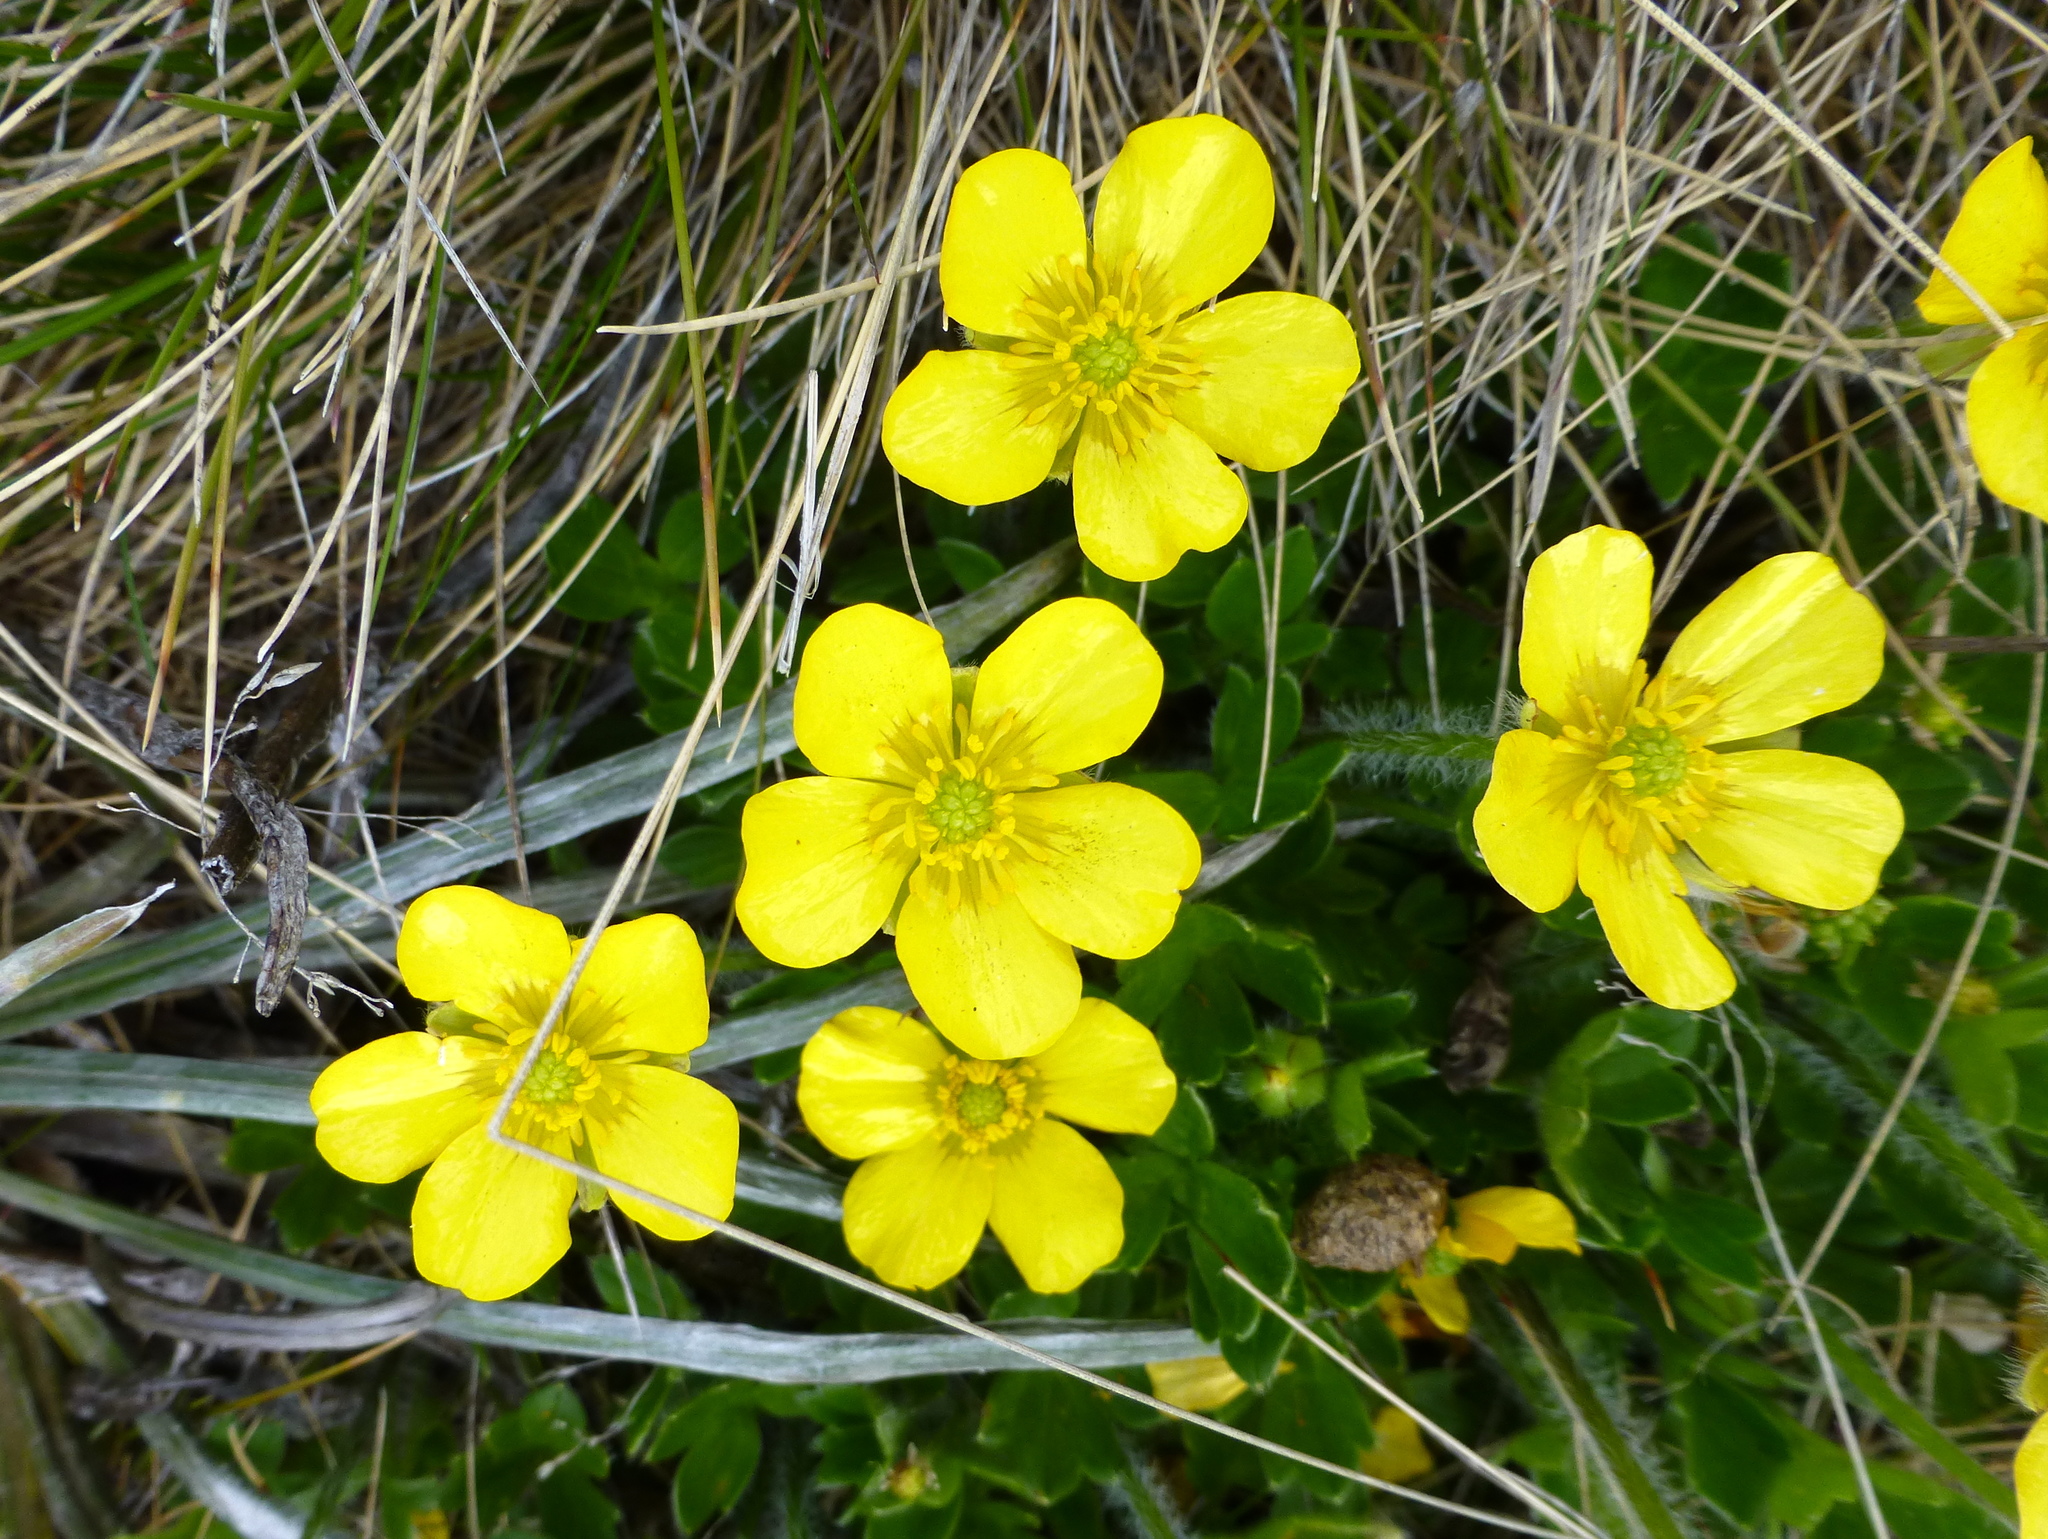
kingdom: Plantae
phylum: Tracheophyta
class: Magnoliopsida
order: Ranunculales
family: Ranunculaceae
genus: Ranunculus
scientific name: Ranunculus graniticola
